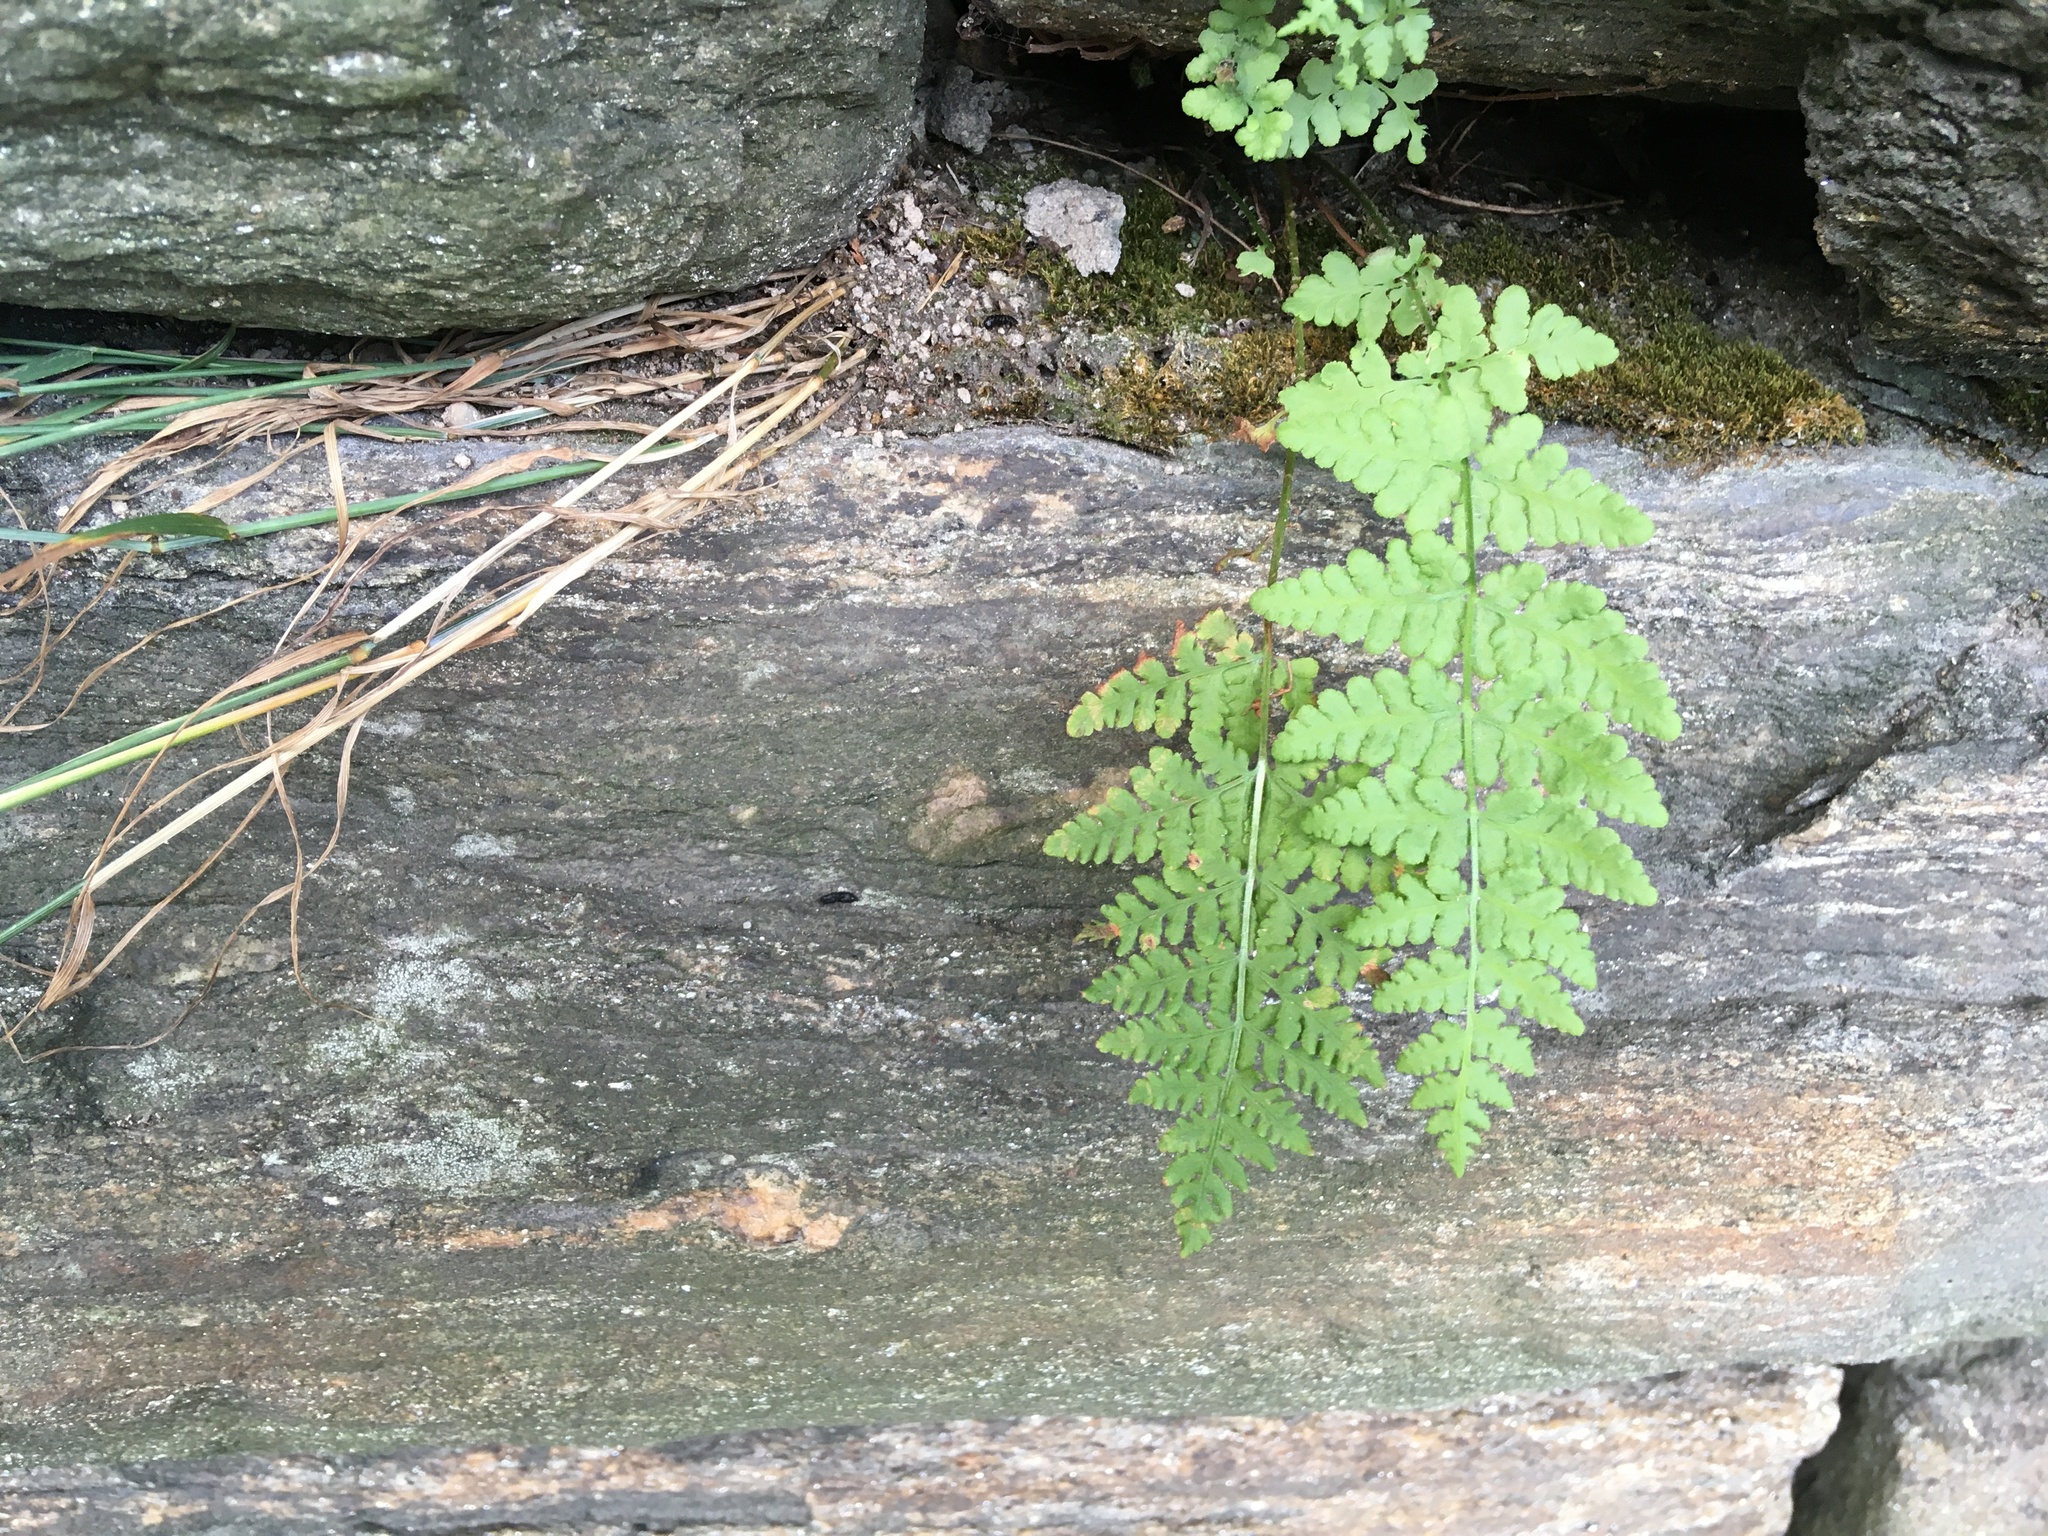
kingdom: Plantae
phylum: Tracheophyta
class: Polypodiopsida
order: Polypodiales
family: Woodsiaceae
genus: Physematium
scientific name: Physematium obtusum
